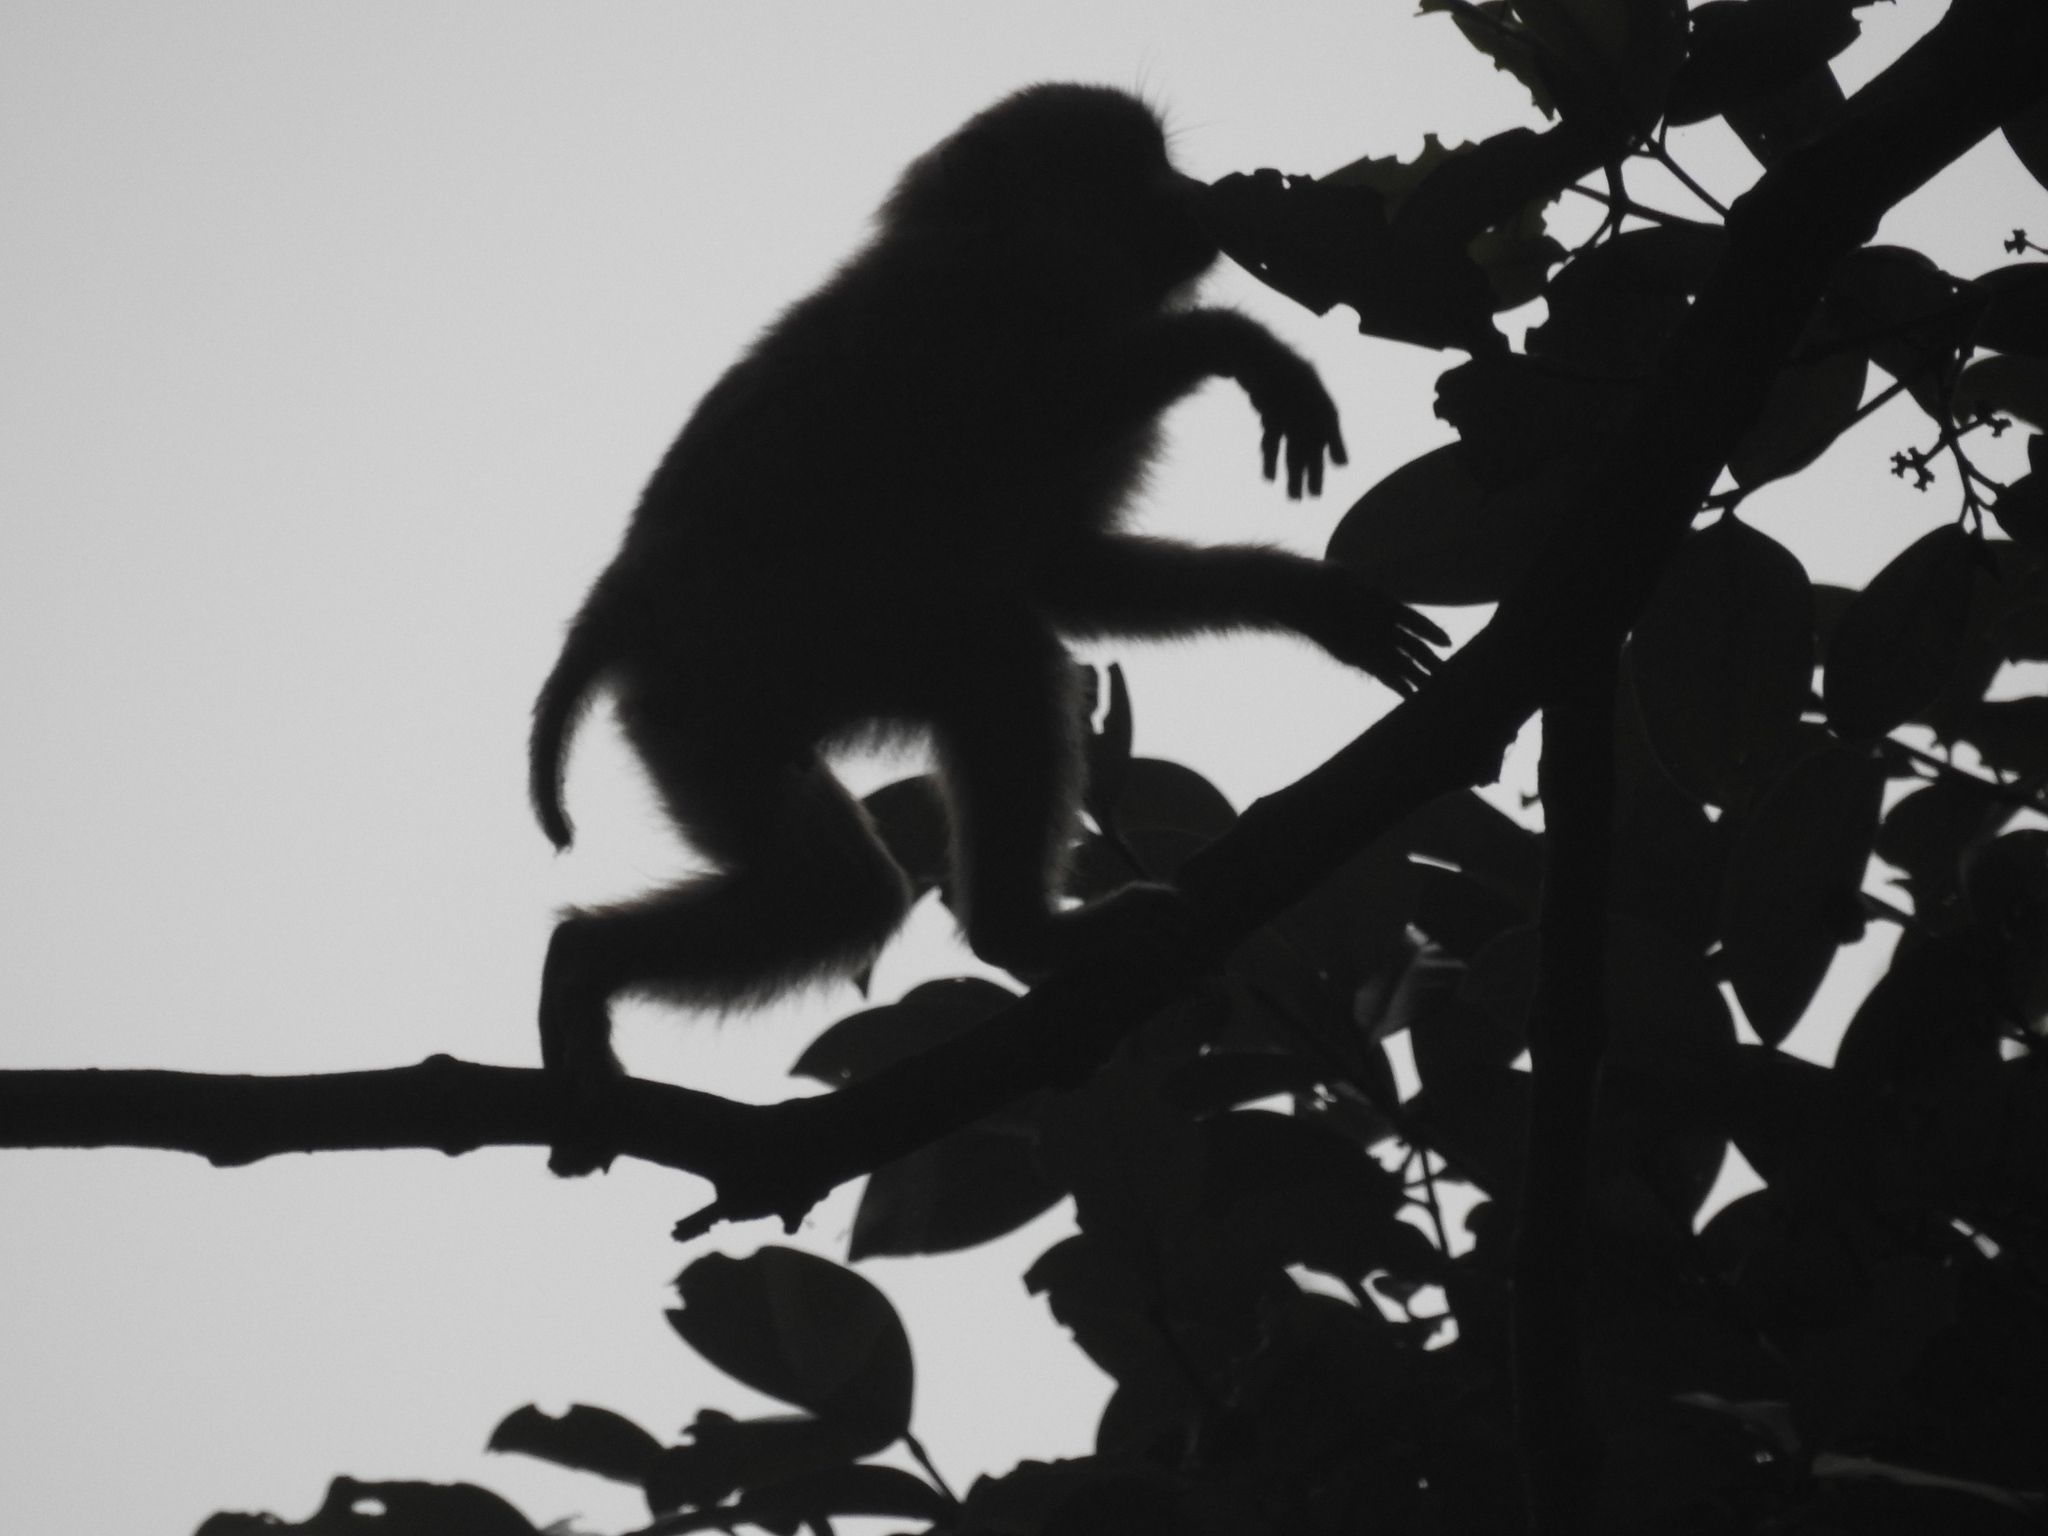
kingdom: Animalia
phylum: Chordata
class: Mammalia
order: Primates
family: Cercopithecidae
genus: Macaca
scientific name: Macaca leonina
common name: Northern pig-tailed macaque
